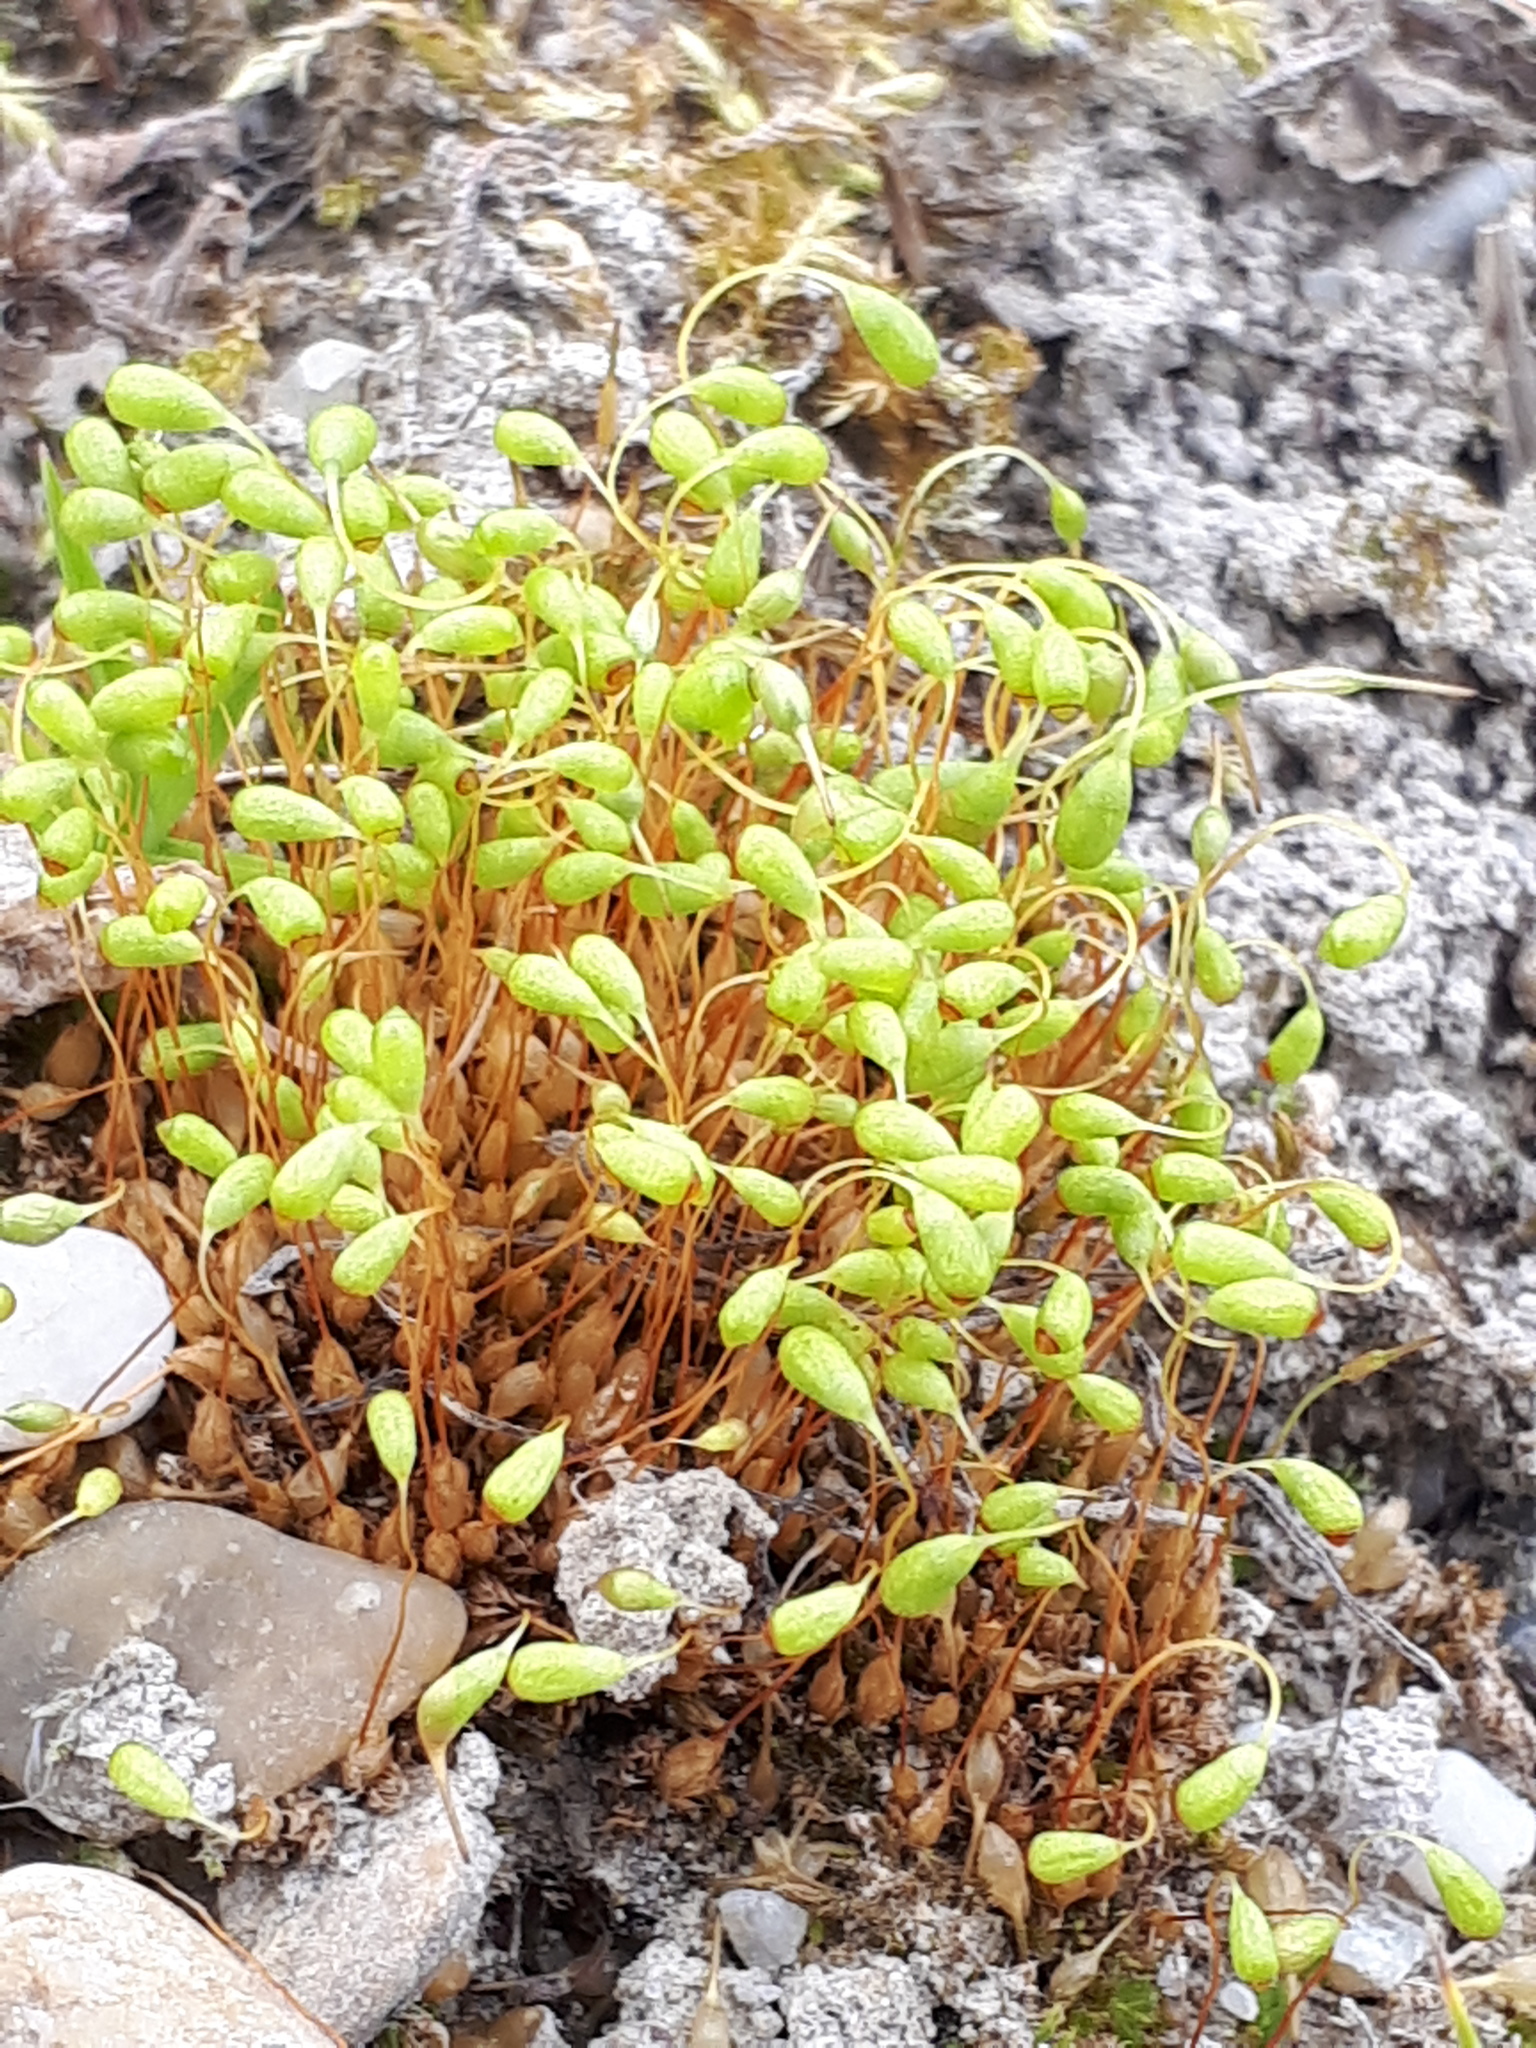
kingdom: Plantae
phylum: Bryophyta
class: Bryopsida
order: Funariales
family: Funariaceae
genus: Funaria
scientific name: Funaria hygrometrica
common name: Common cord moss
